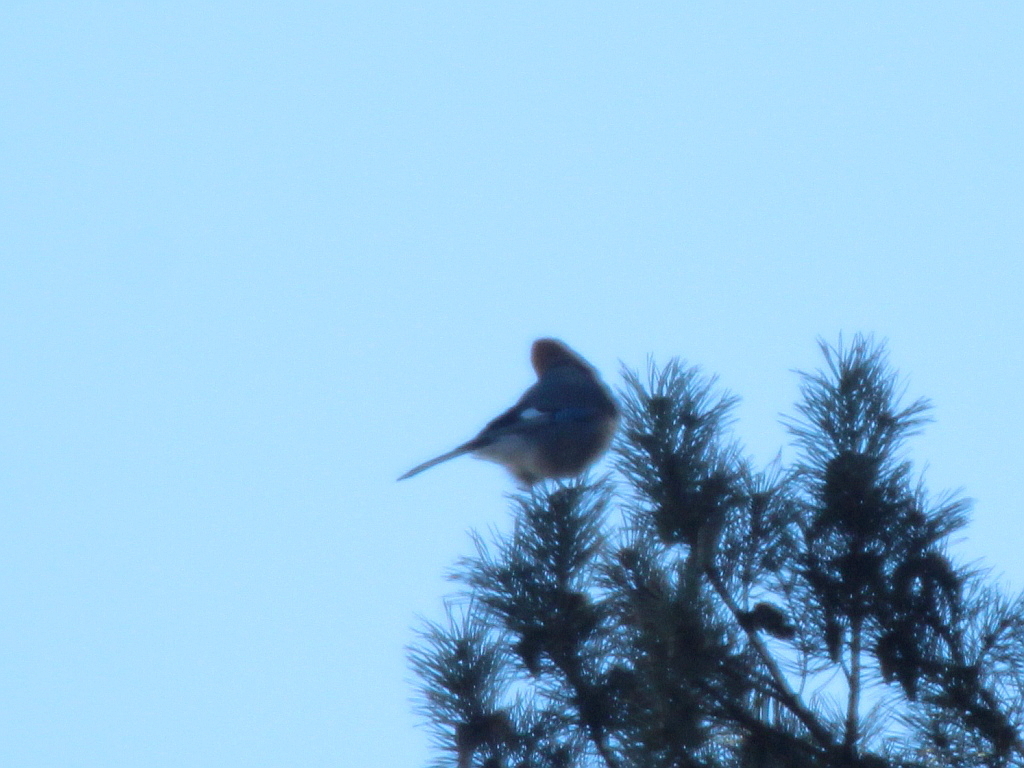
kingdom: Animalia
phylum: Chordata
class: Aves
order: Passeriformes
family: Corvidae
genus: Garrulus
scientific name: Garrulus glandarius
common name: Eurasian jay
